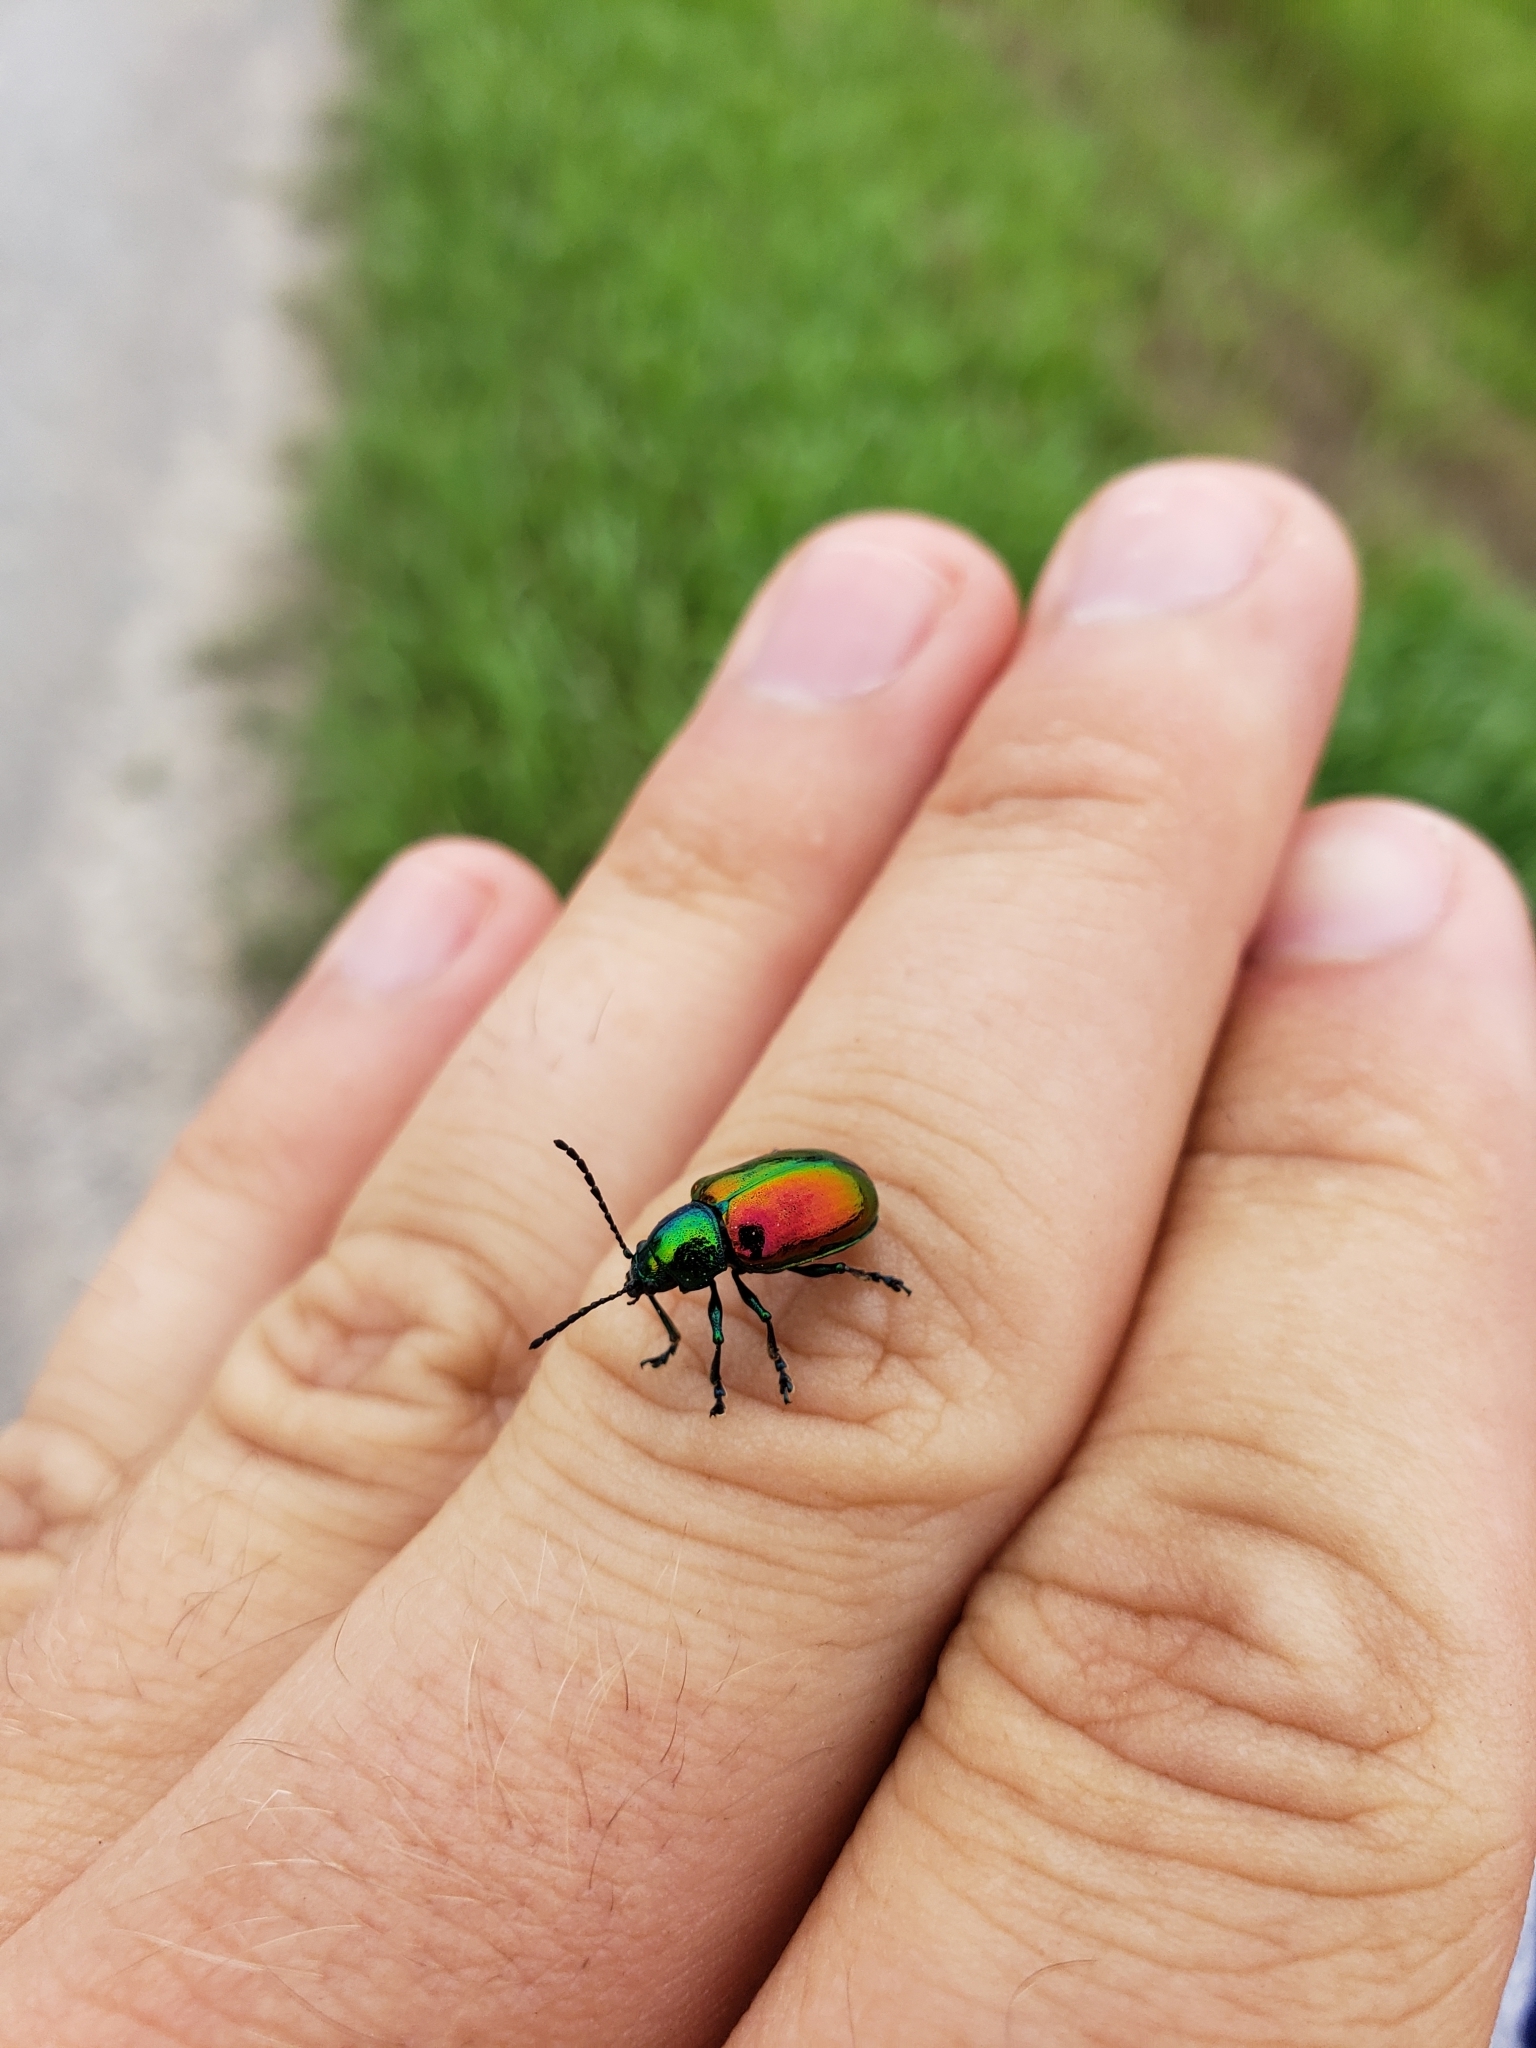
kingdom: Animalia
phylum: Arthropoda
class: Insecta
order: Coleoptera
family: Chrysomelidae
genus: Chrysochus
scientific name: Chrysochus auratus
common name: Dogbane leaf beetle
